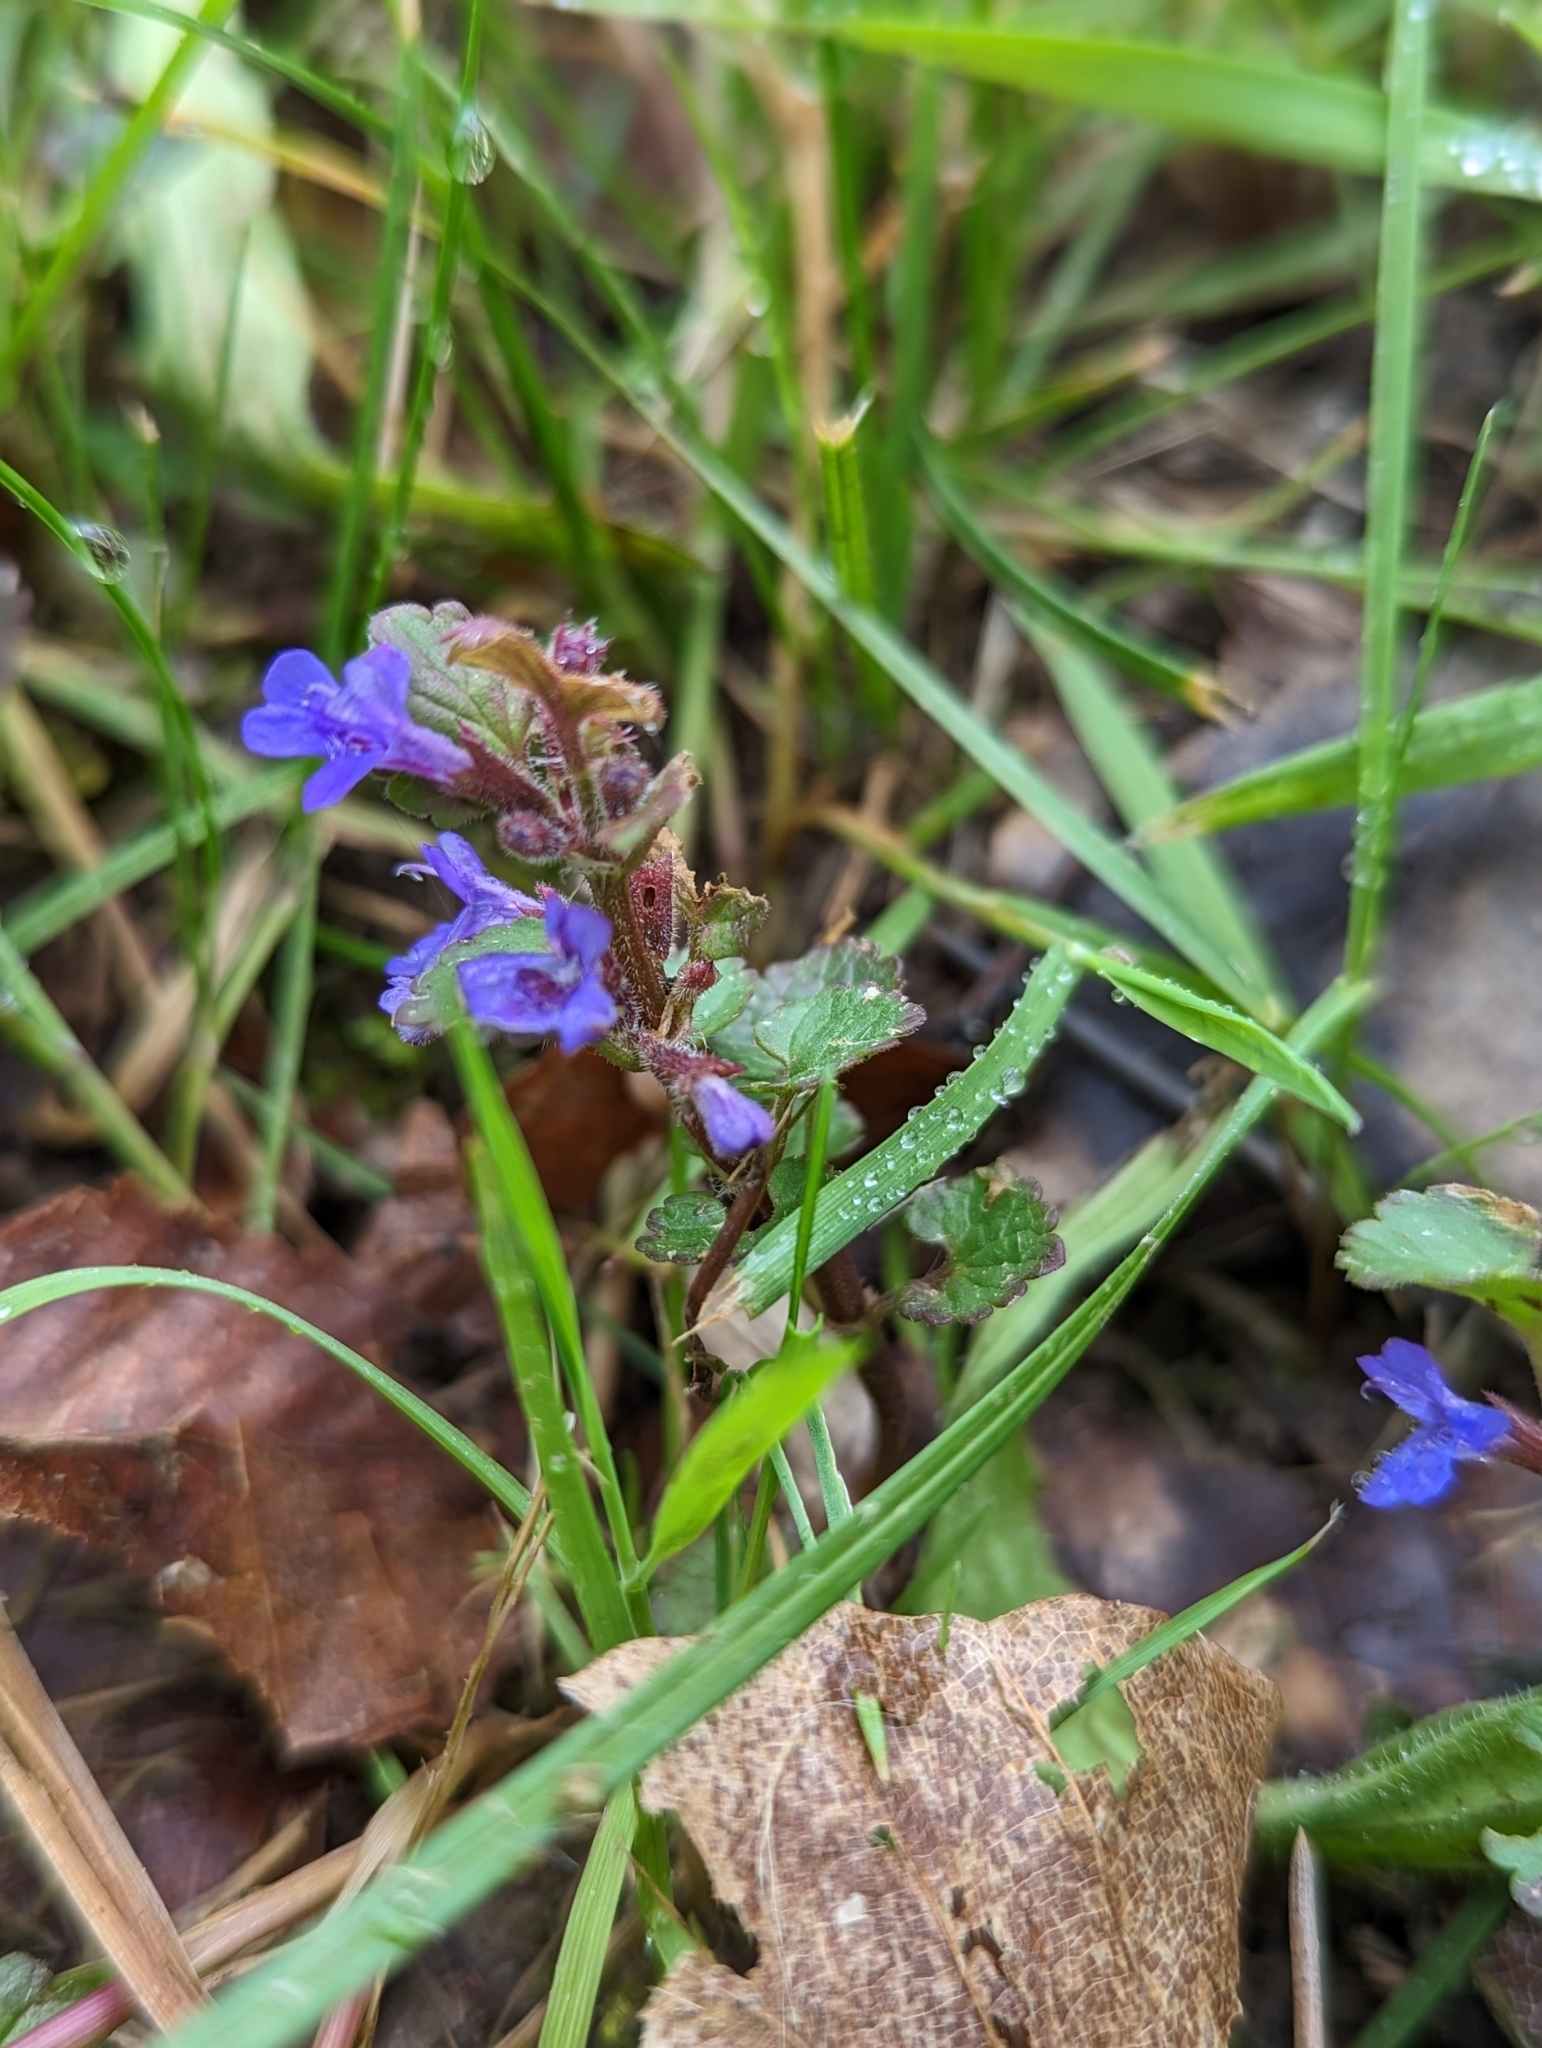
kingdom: Plantae
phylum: Tracheophyta
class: Magnoliopsida
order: Lamiales
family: Lamiaceae
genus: Glechoma
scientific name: Glechoma hederacea
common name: Ground ivy
